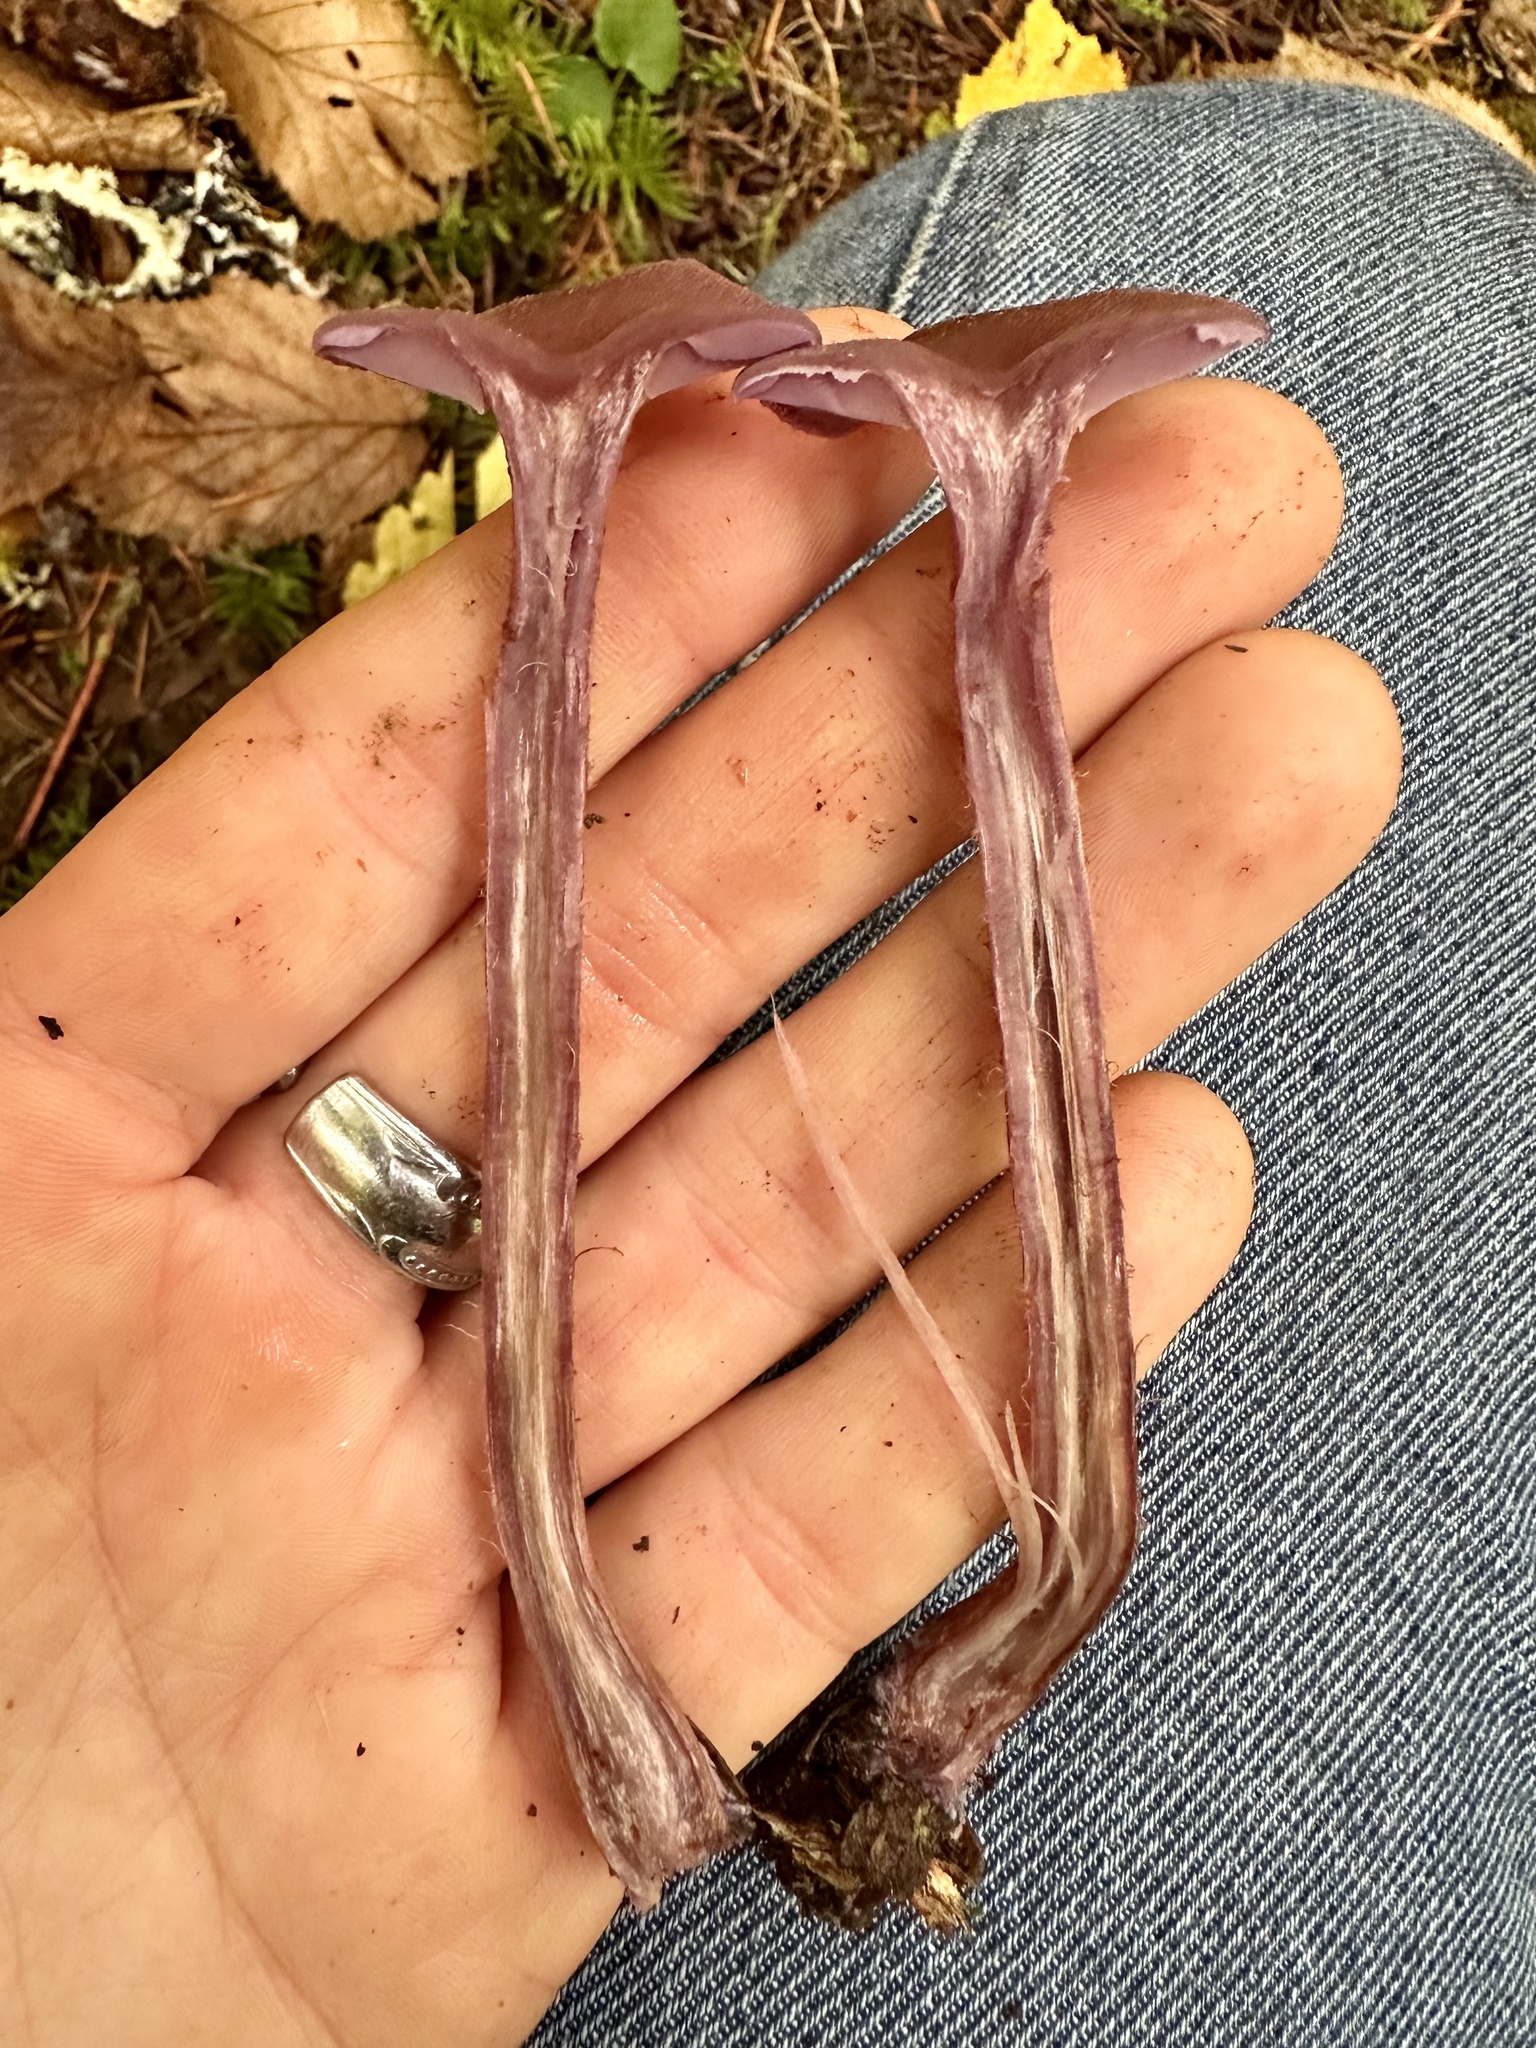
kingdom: Fungi
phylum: Basidiomycota
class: Agaricomycetes
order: Agaricales
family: Hydnangiaceae
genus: Laccaria
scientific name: Laccaria amethysteo-occidentalis
